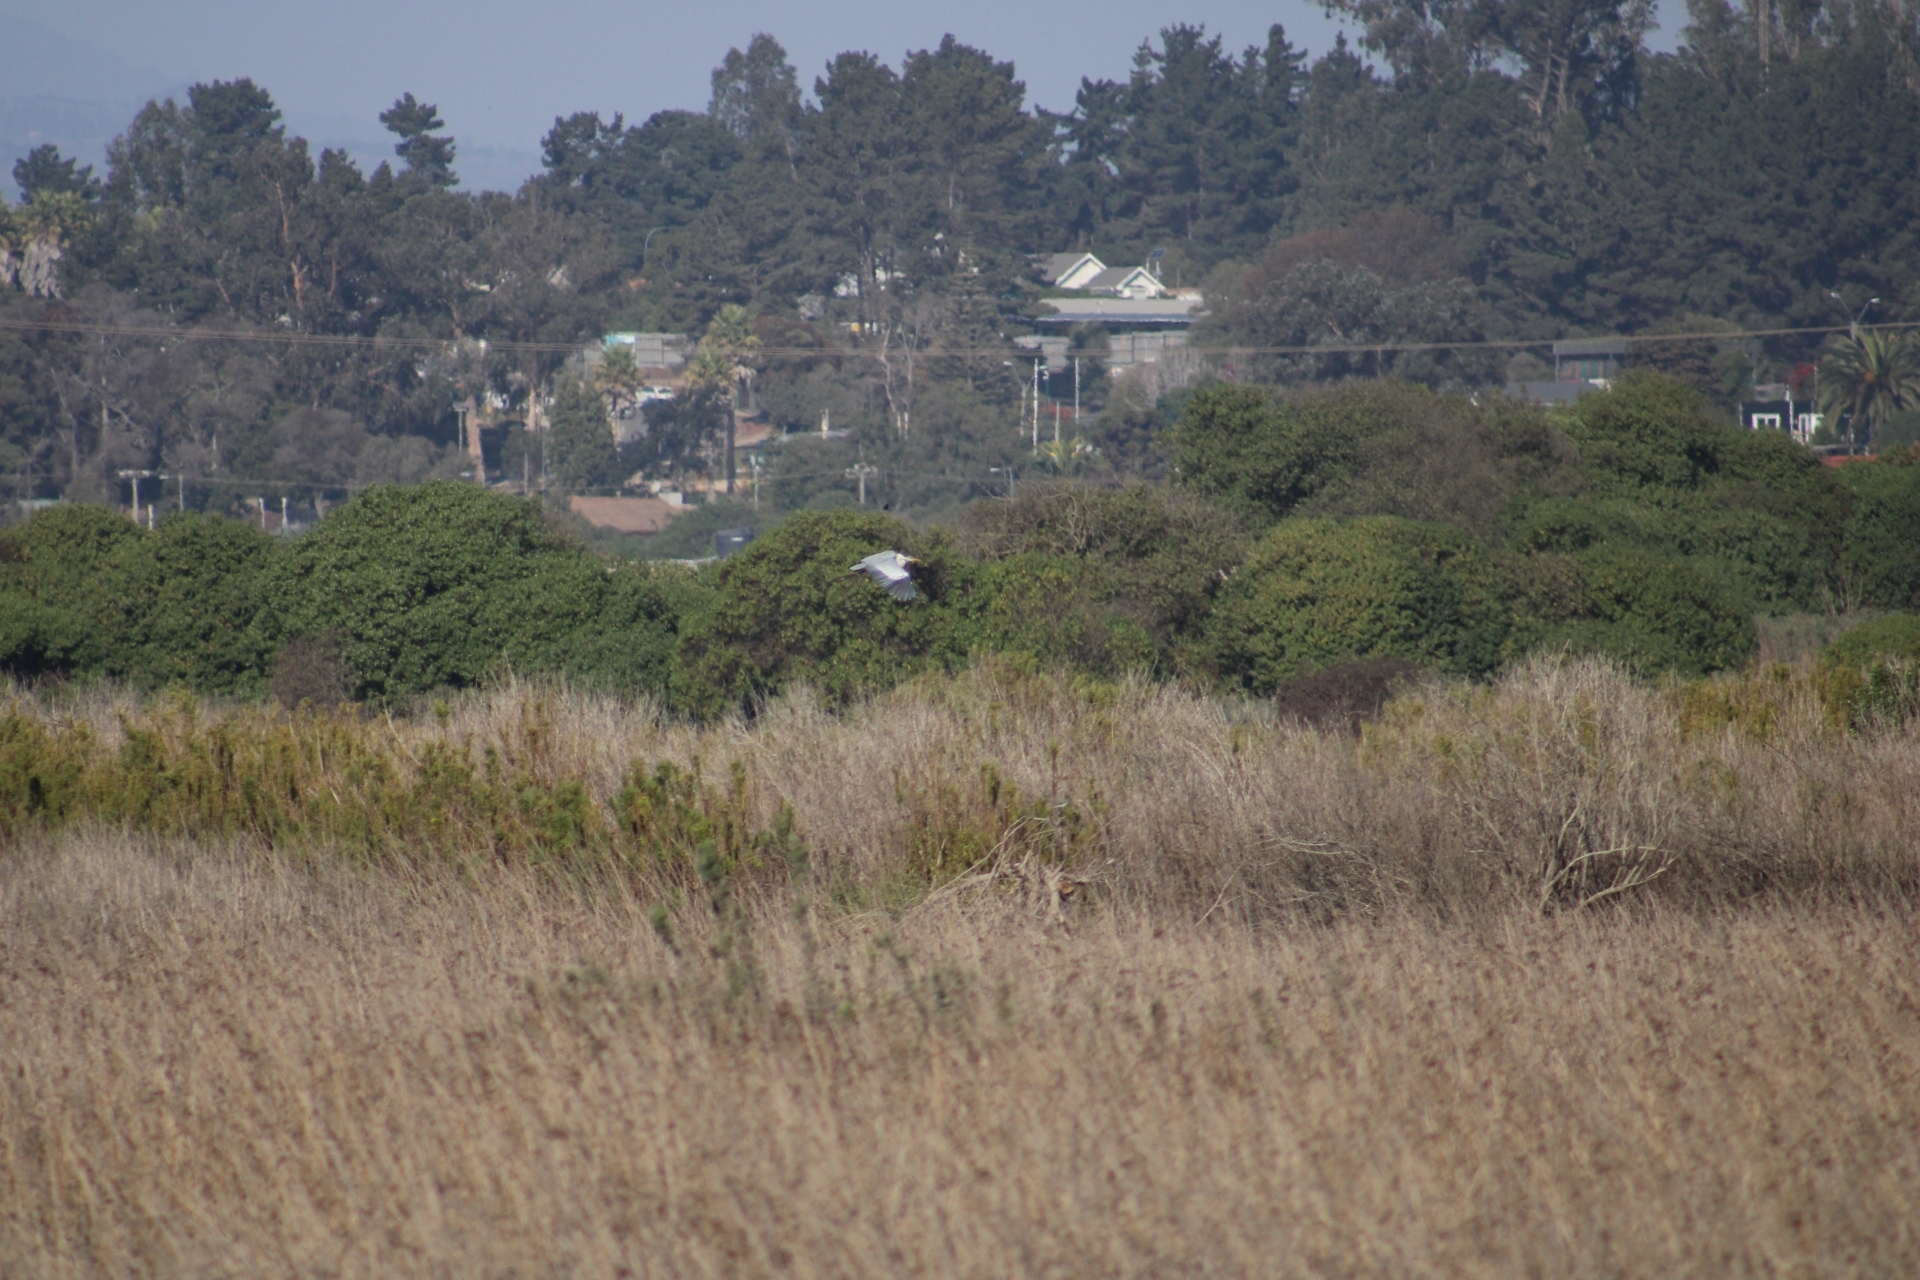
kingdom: Animalia
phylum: Chordata
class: Aves
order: Pelecaniformes
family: Ardeidae
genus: Ardea
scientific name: Ardea cocoi
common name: Cocoi heron
